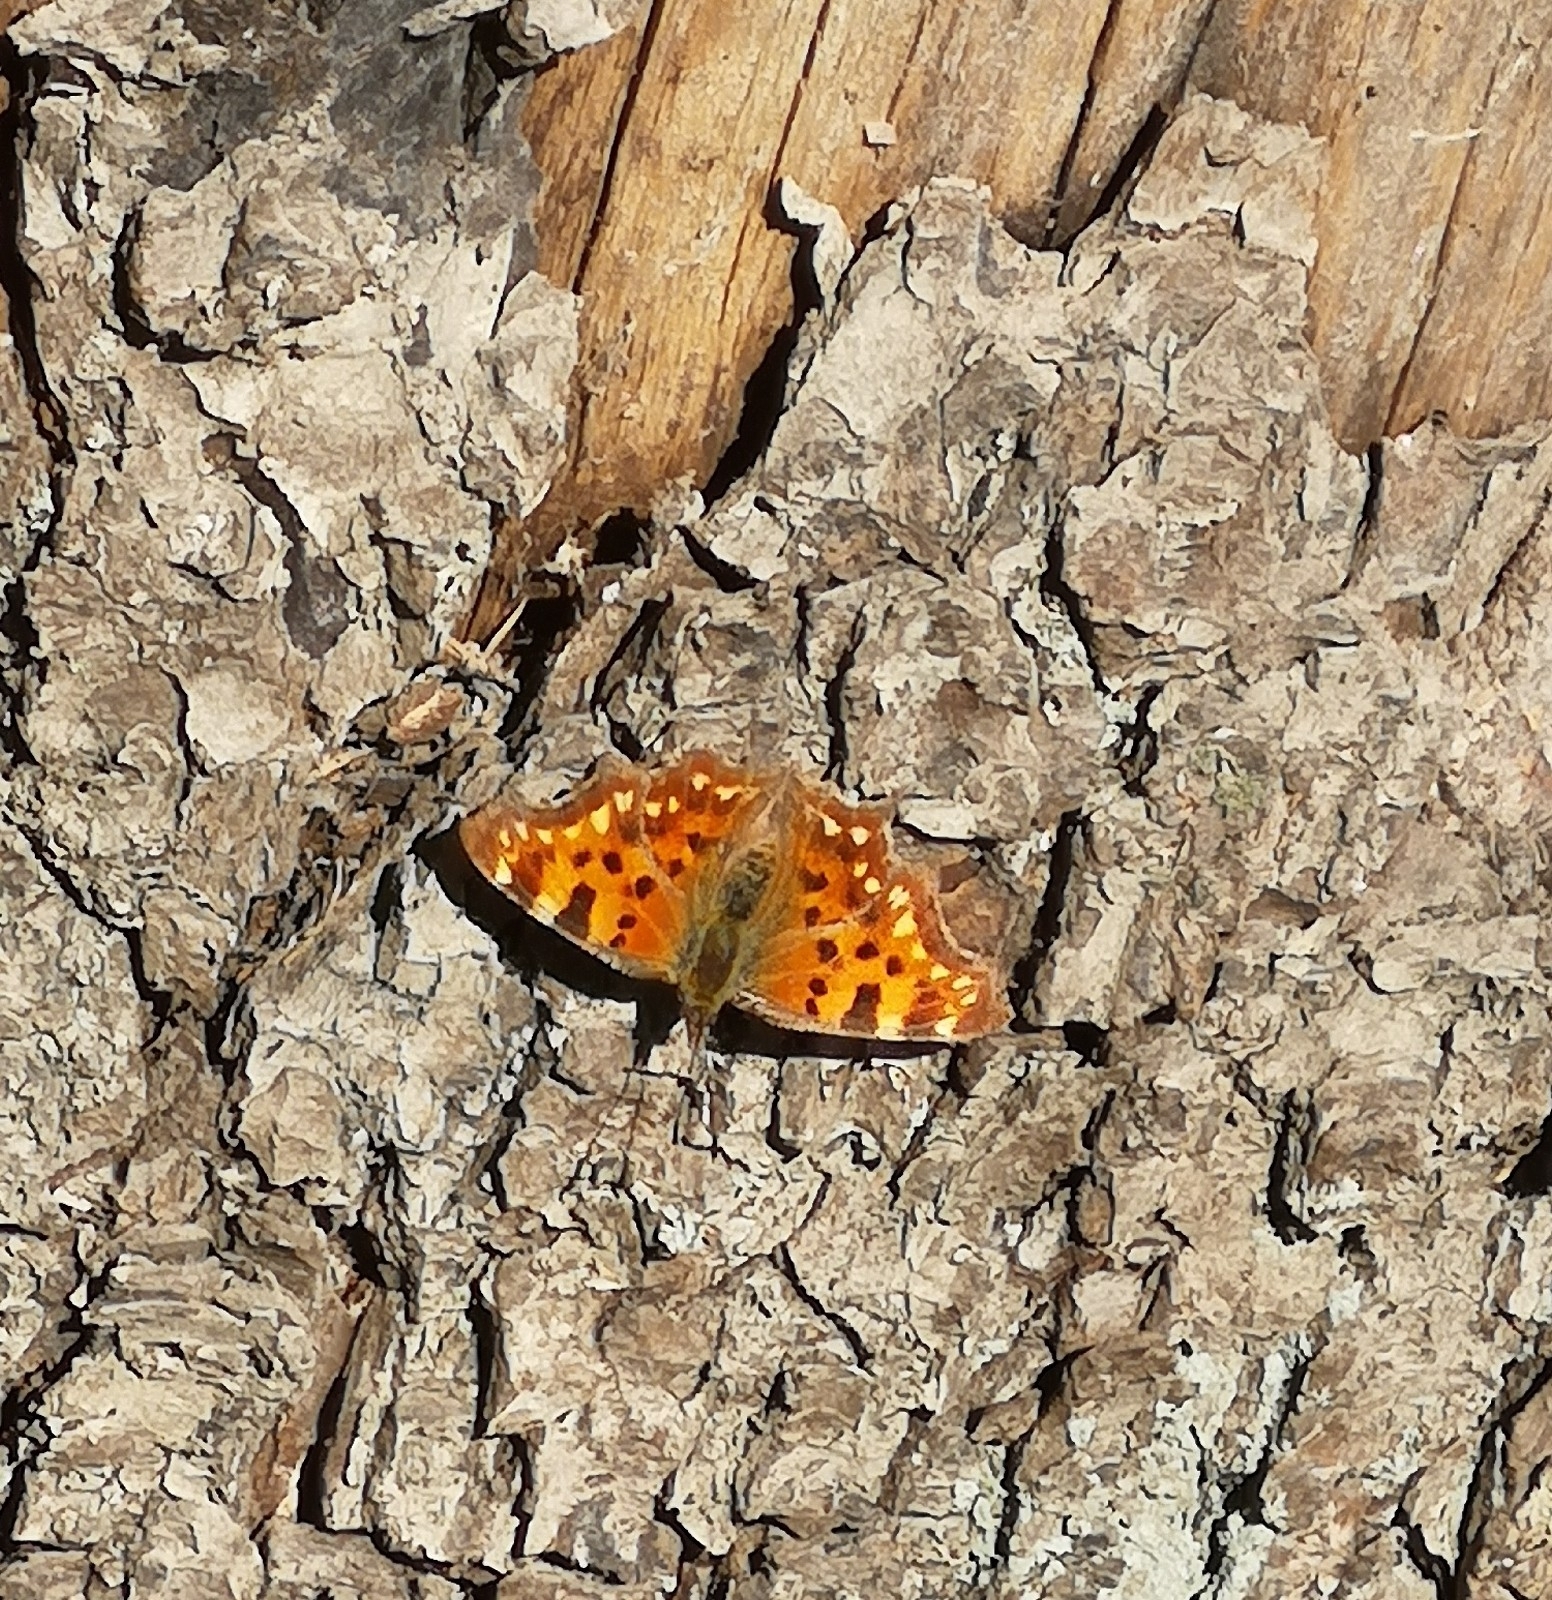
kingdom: Animalia
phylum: Arthropoda
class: Insecta
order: Lepidoptera
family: Nymphalidae
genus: Polygonia
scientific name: Polygonia c-album
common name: Comma
